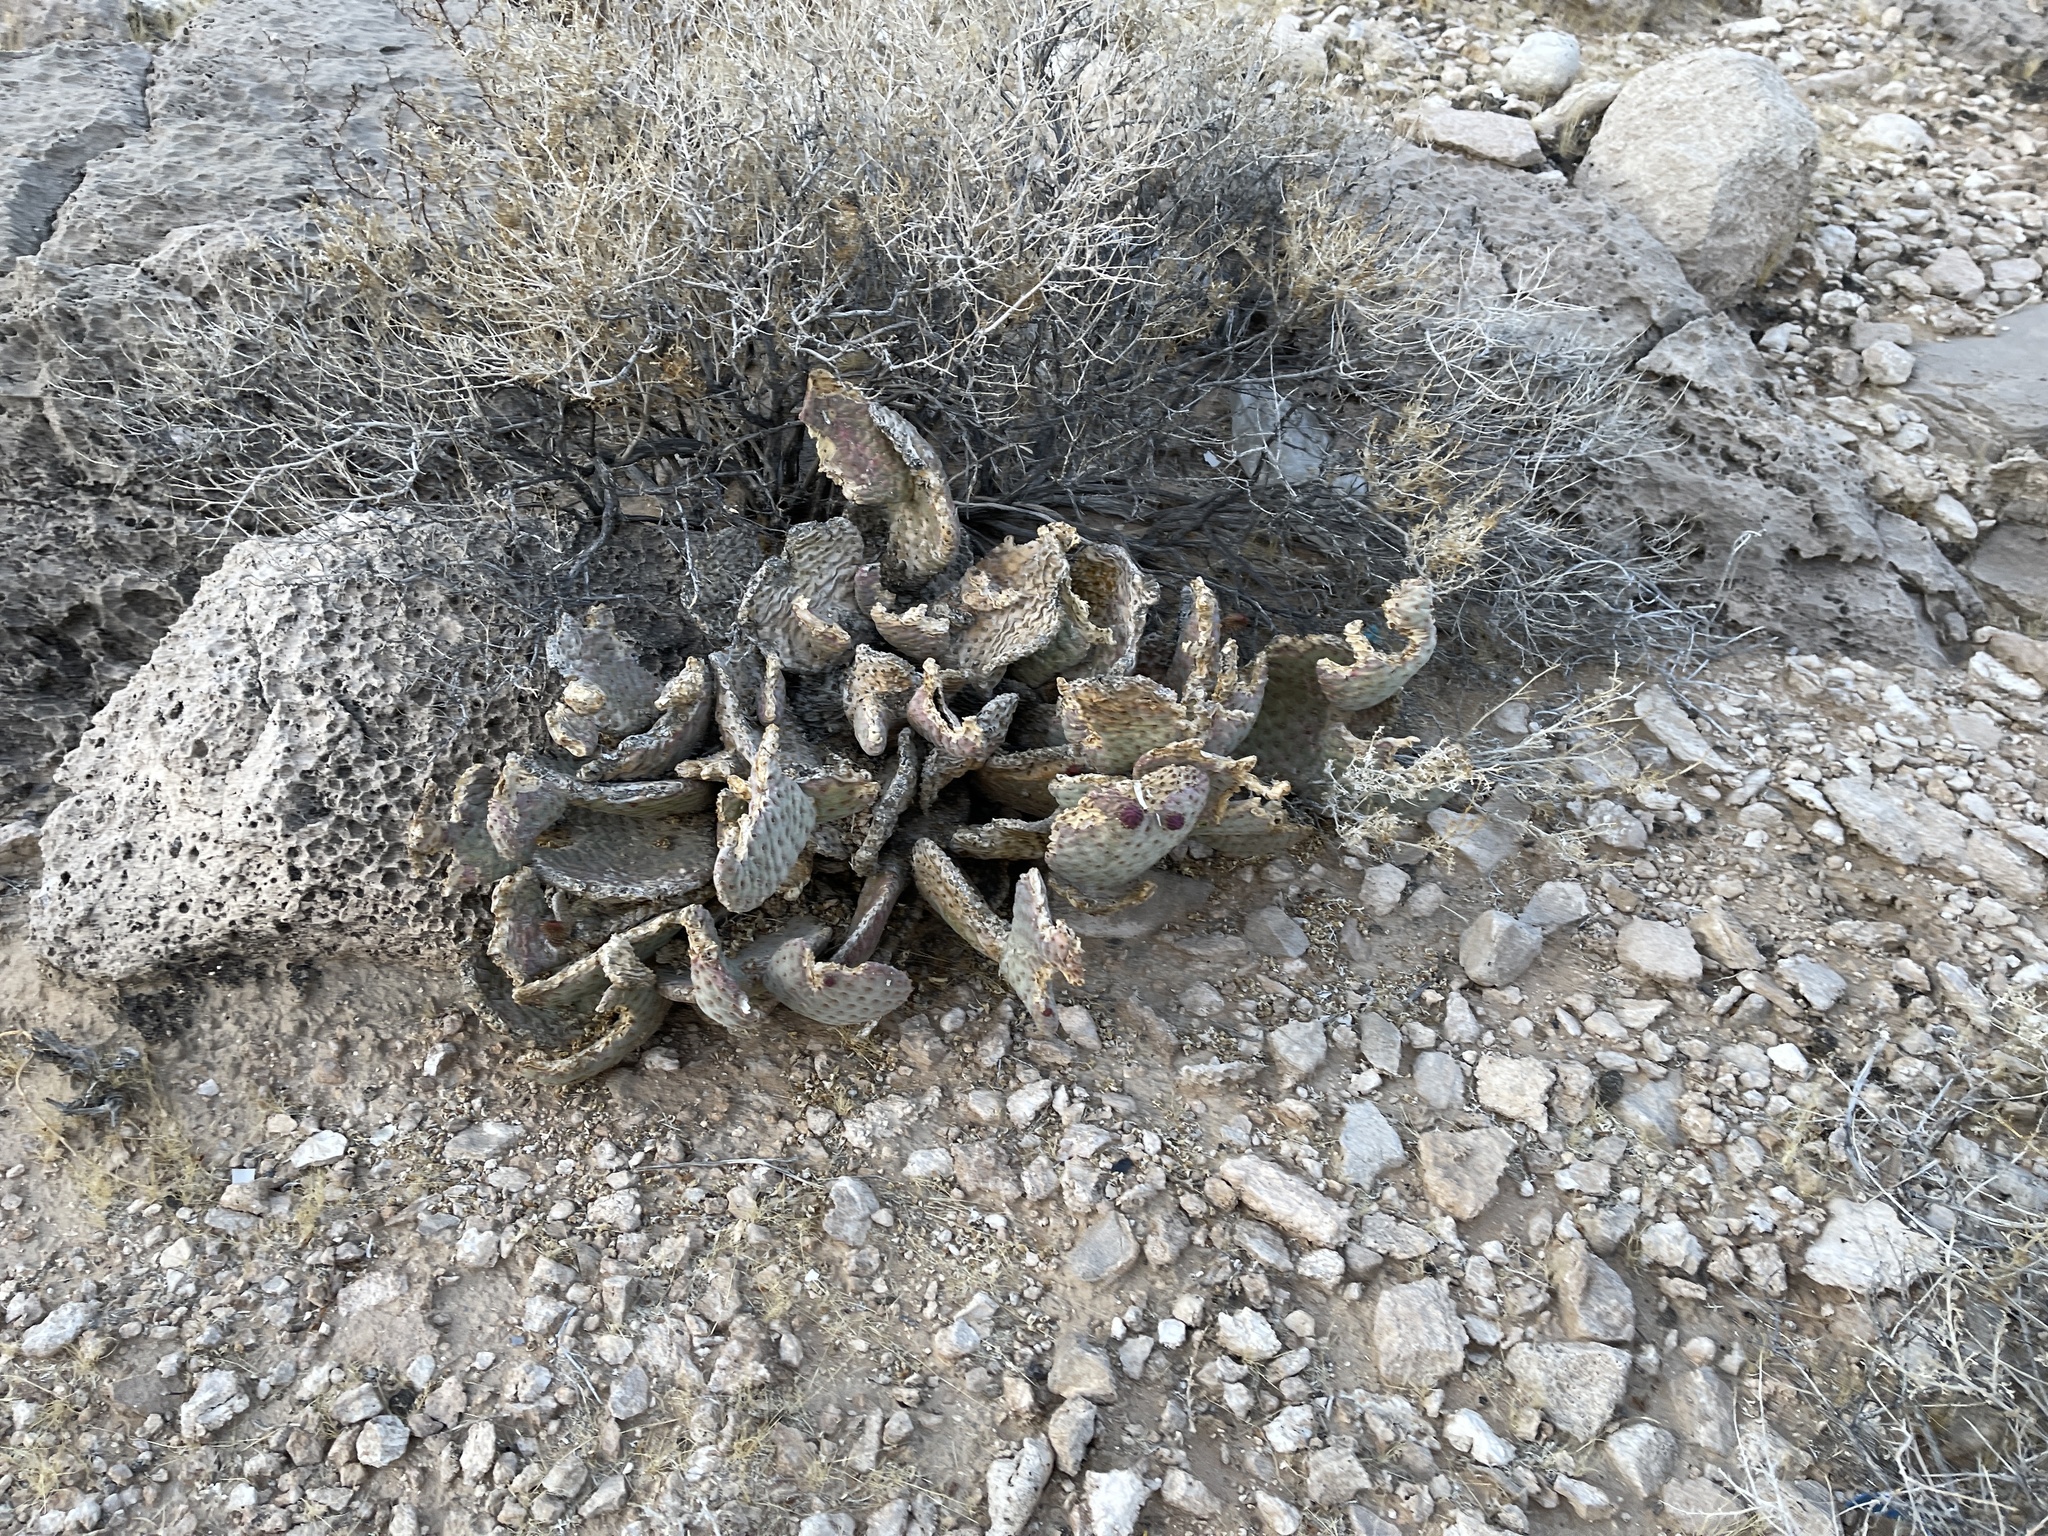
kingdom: Plantae
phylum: Tracheophyta
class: Magnoliopsida
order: Caryophyllales
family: Cactaceae
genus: Opuntia
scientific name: Opuntia basilaris
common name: Beavertail prickly-pear
